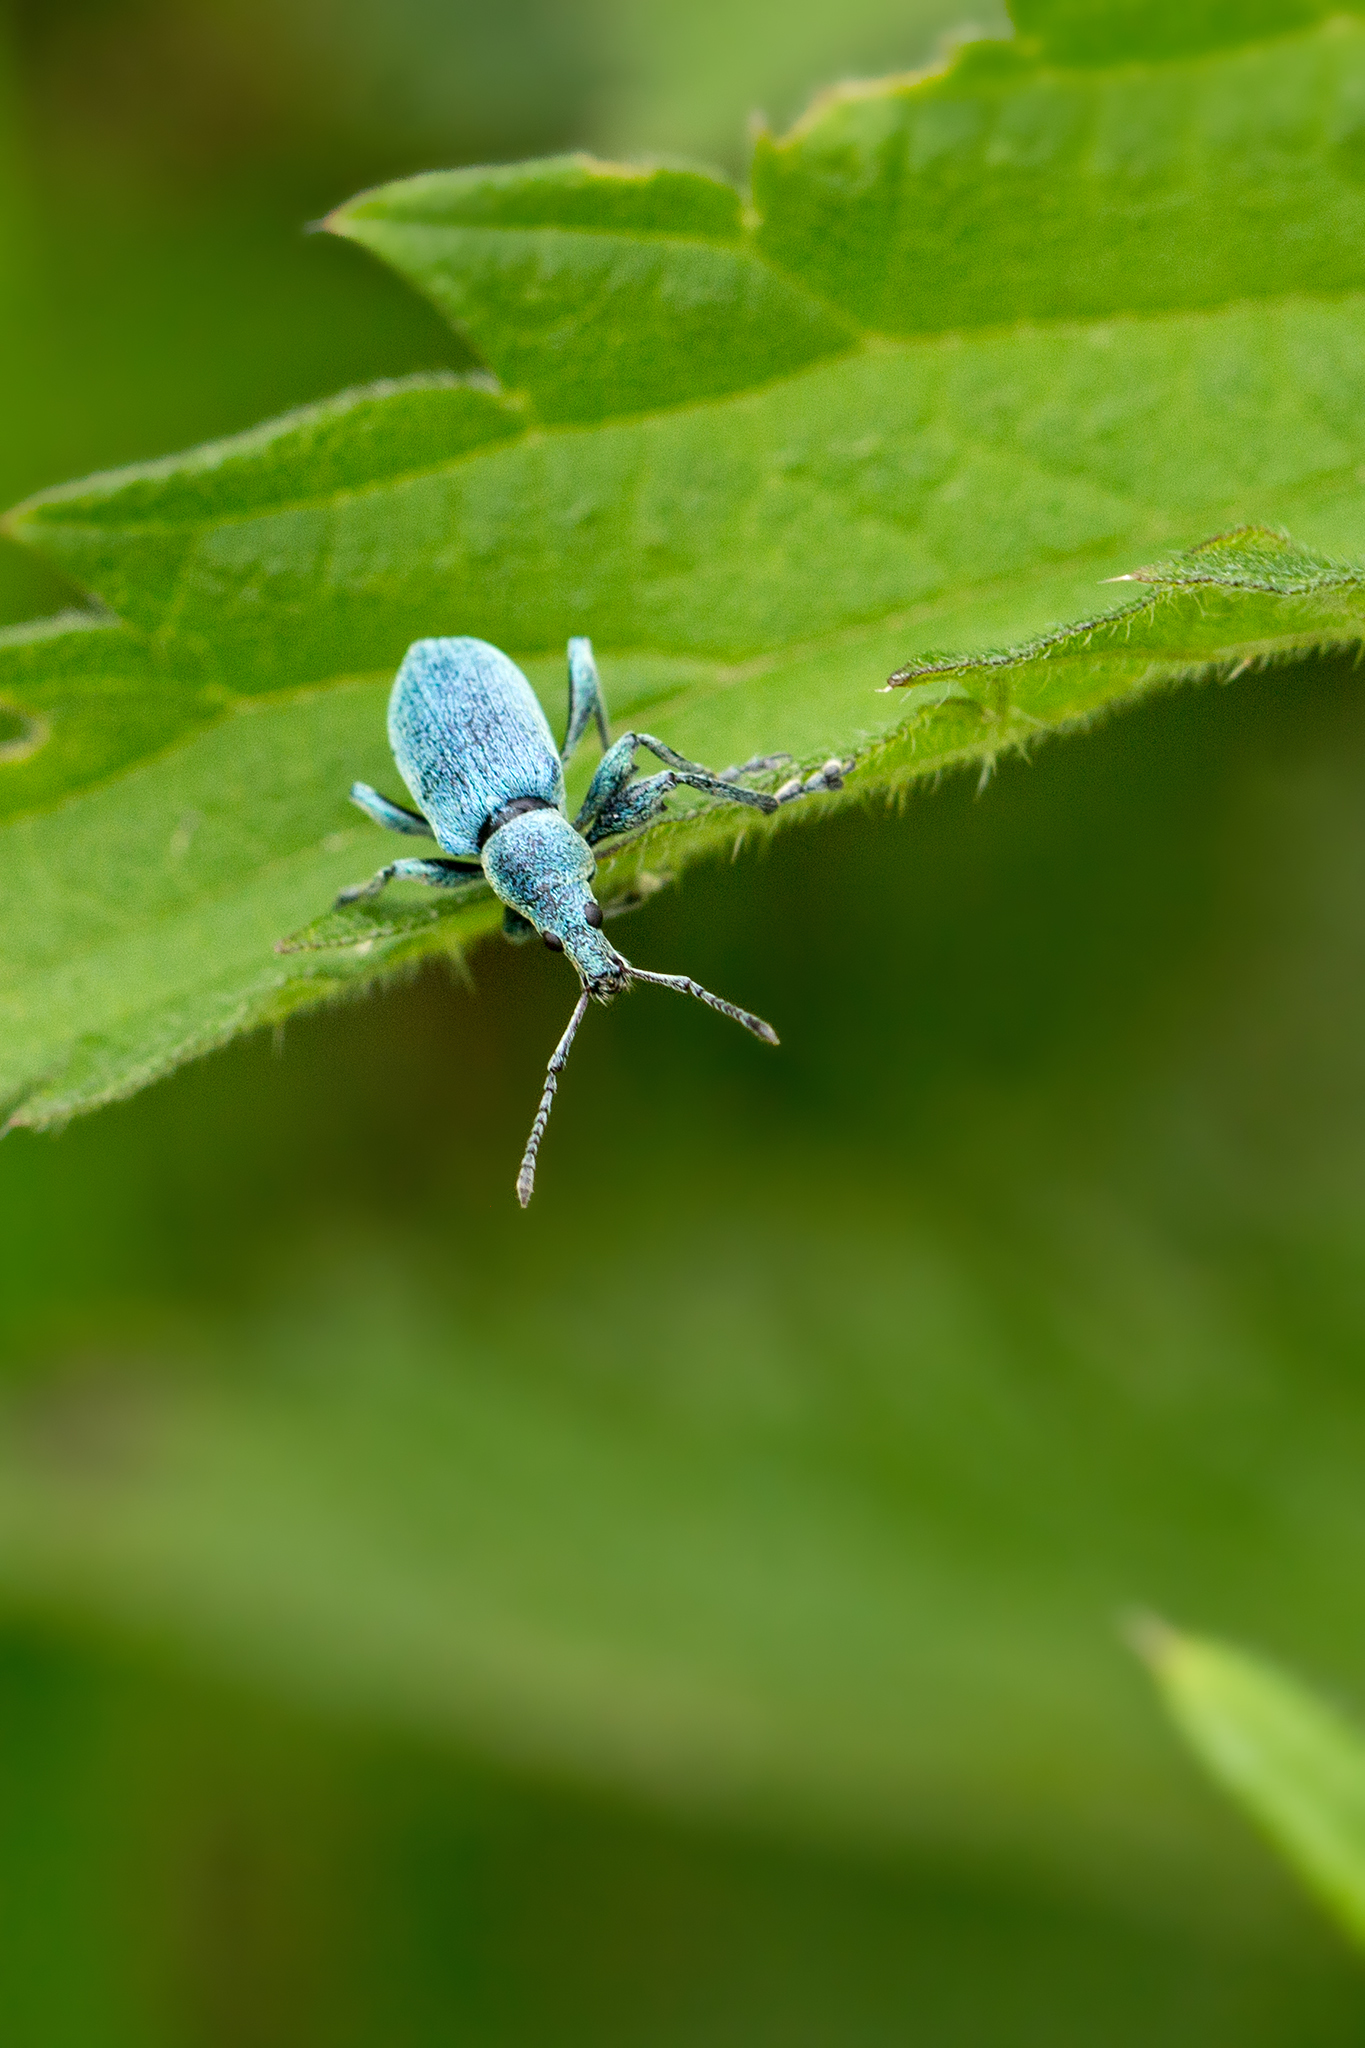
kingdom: Animalia
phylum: Arthropoda
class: Insecta
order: Coleoptera
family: Curculionidae
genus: Phyllobius
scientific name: Phyllobius pomaceus
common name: Green nettle weevil
